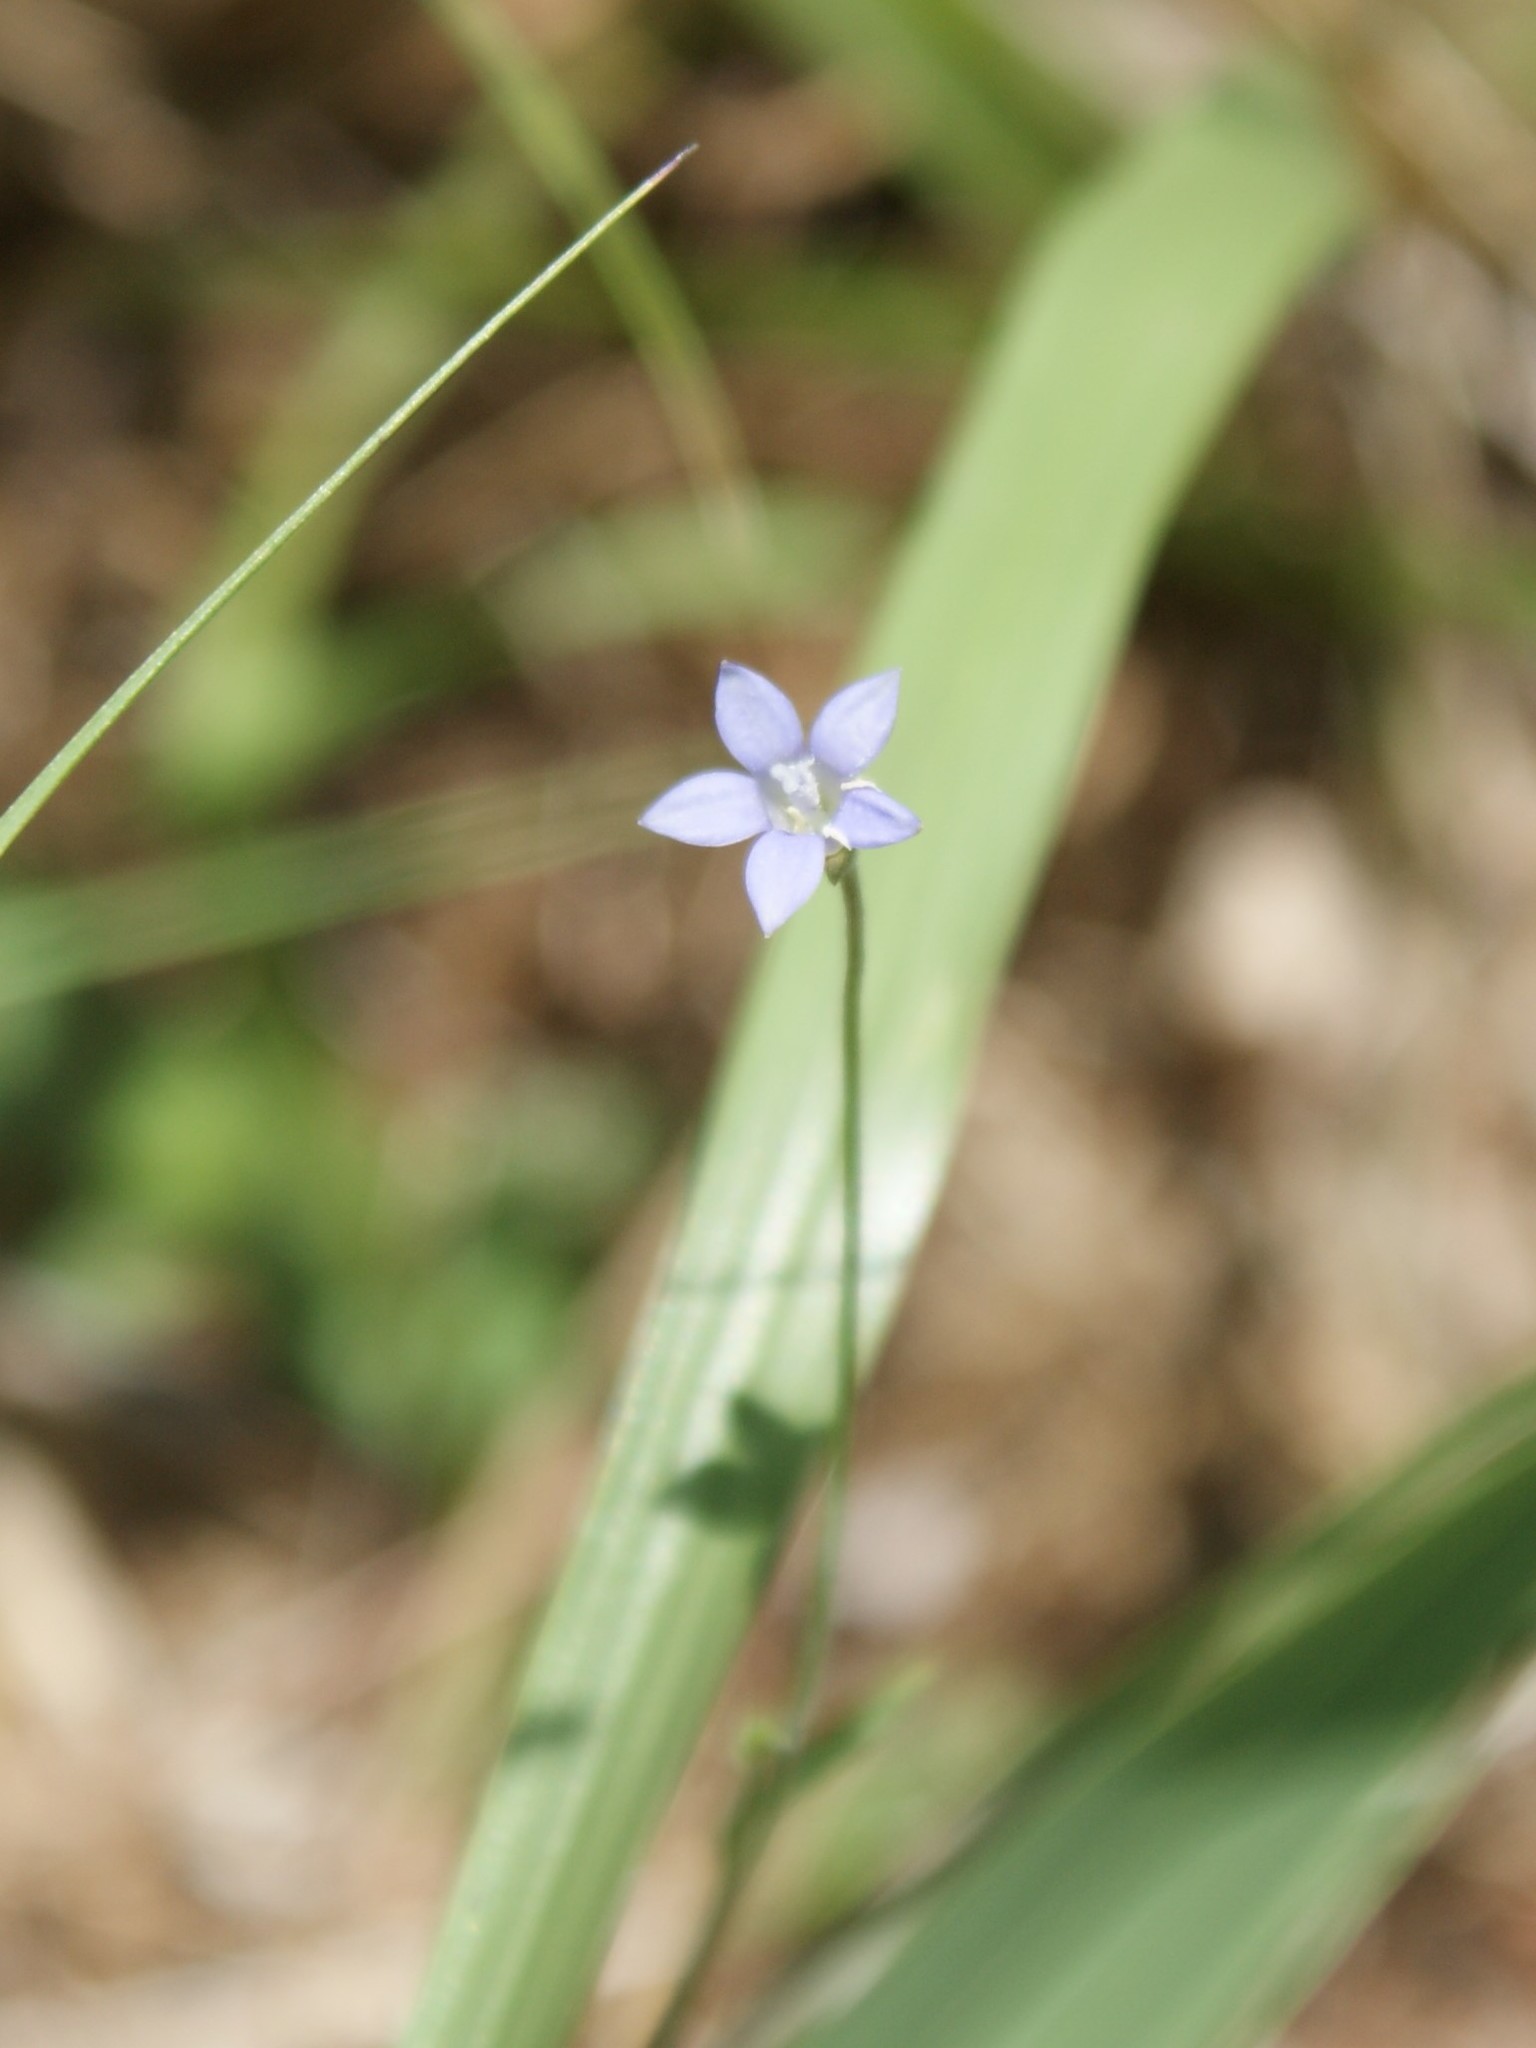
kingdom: Plantae
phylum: Tracheophyta
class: Magnoliopsida
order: Asterales
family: Campanulaceae
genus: Wahlenbergia
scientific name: Wahlenbergia marginata
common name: Southern rockbell
